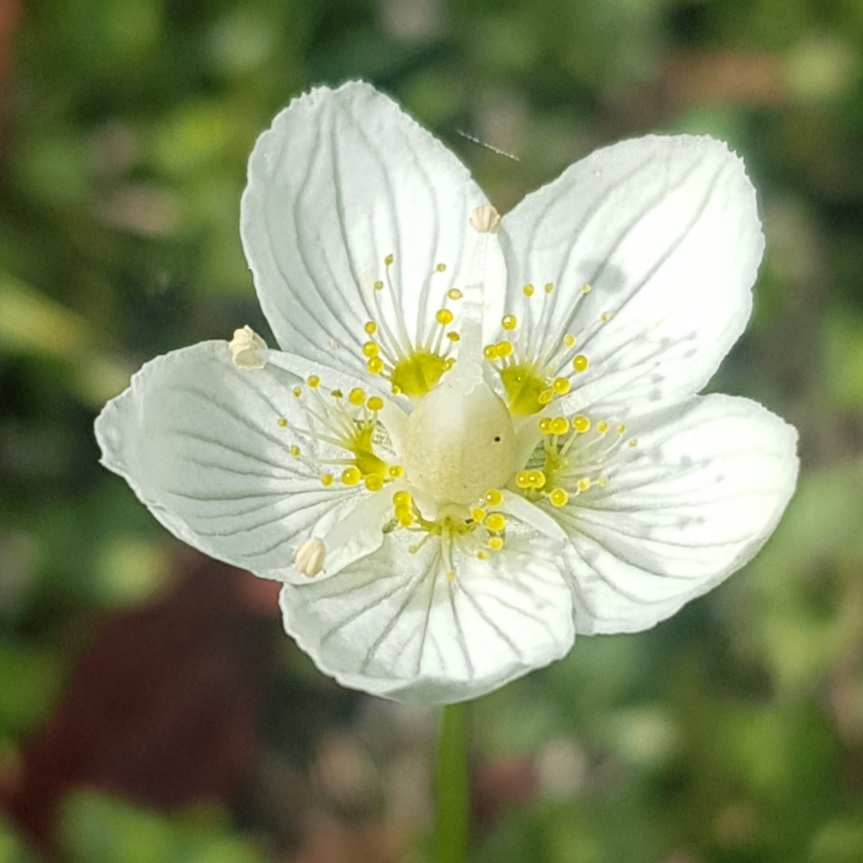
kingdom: Plantae
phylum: Tracheophyta
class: Magnoliopsida
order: Celastrales
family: Parnassiaceae
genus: Parnassia
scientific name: Parnassia palustris
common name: Grass-of-parnassus
